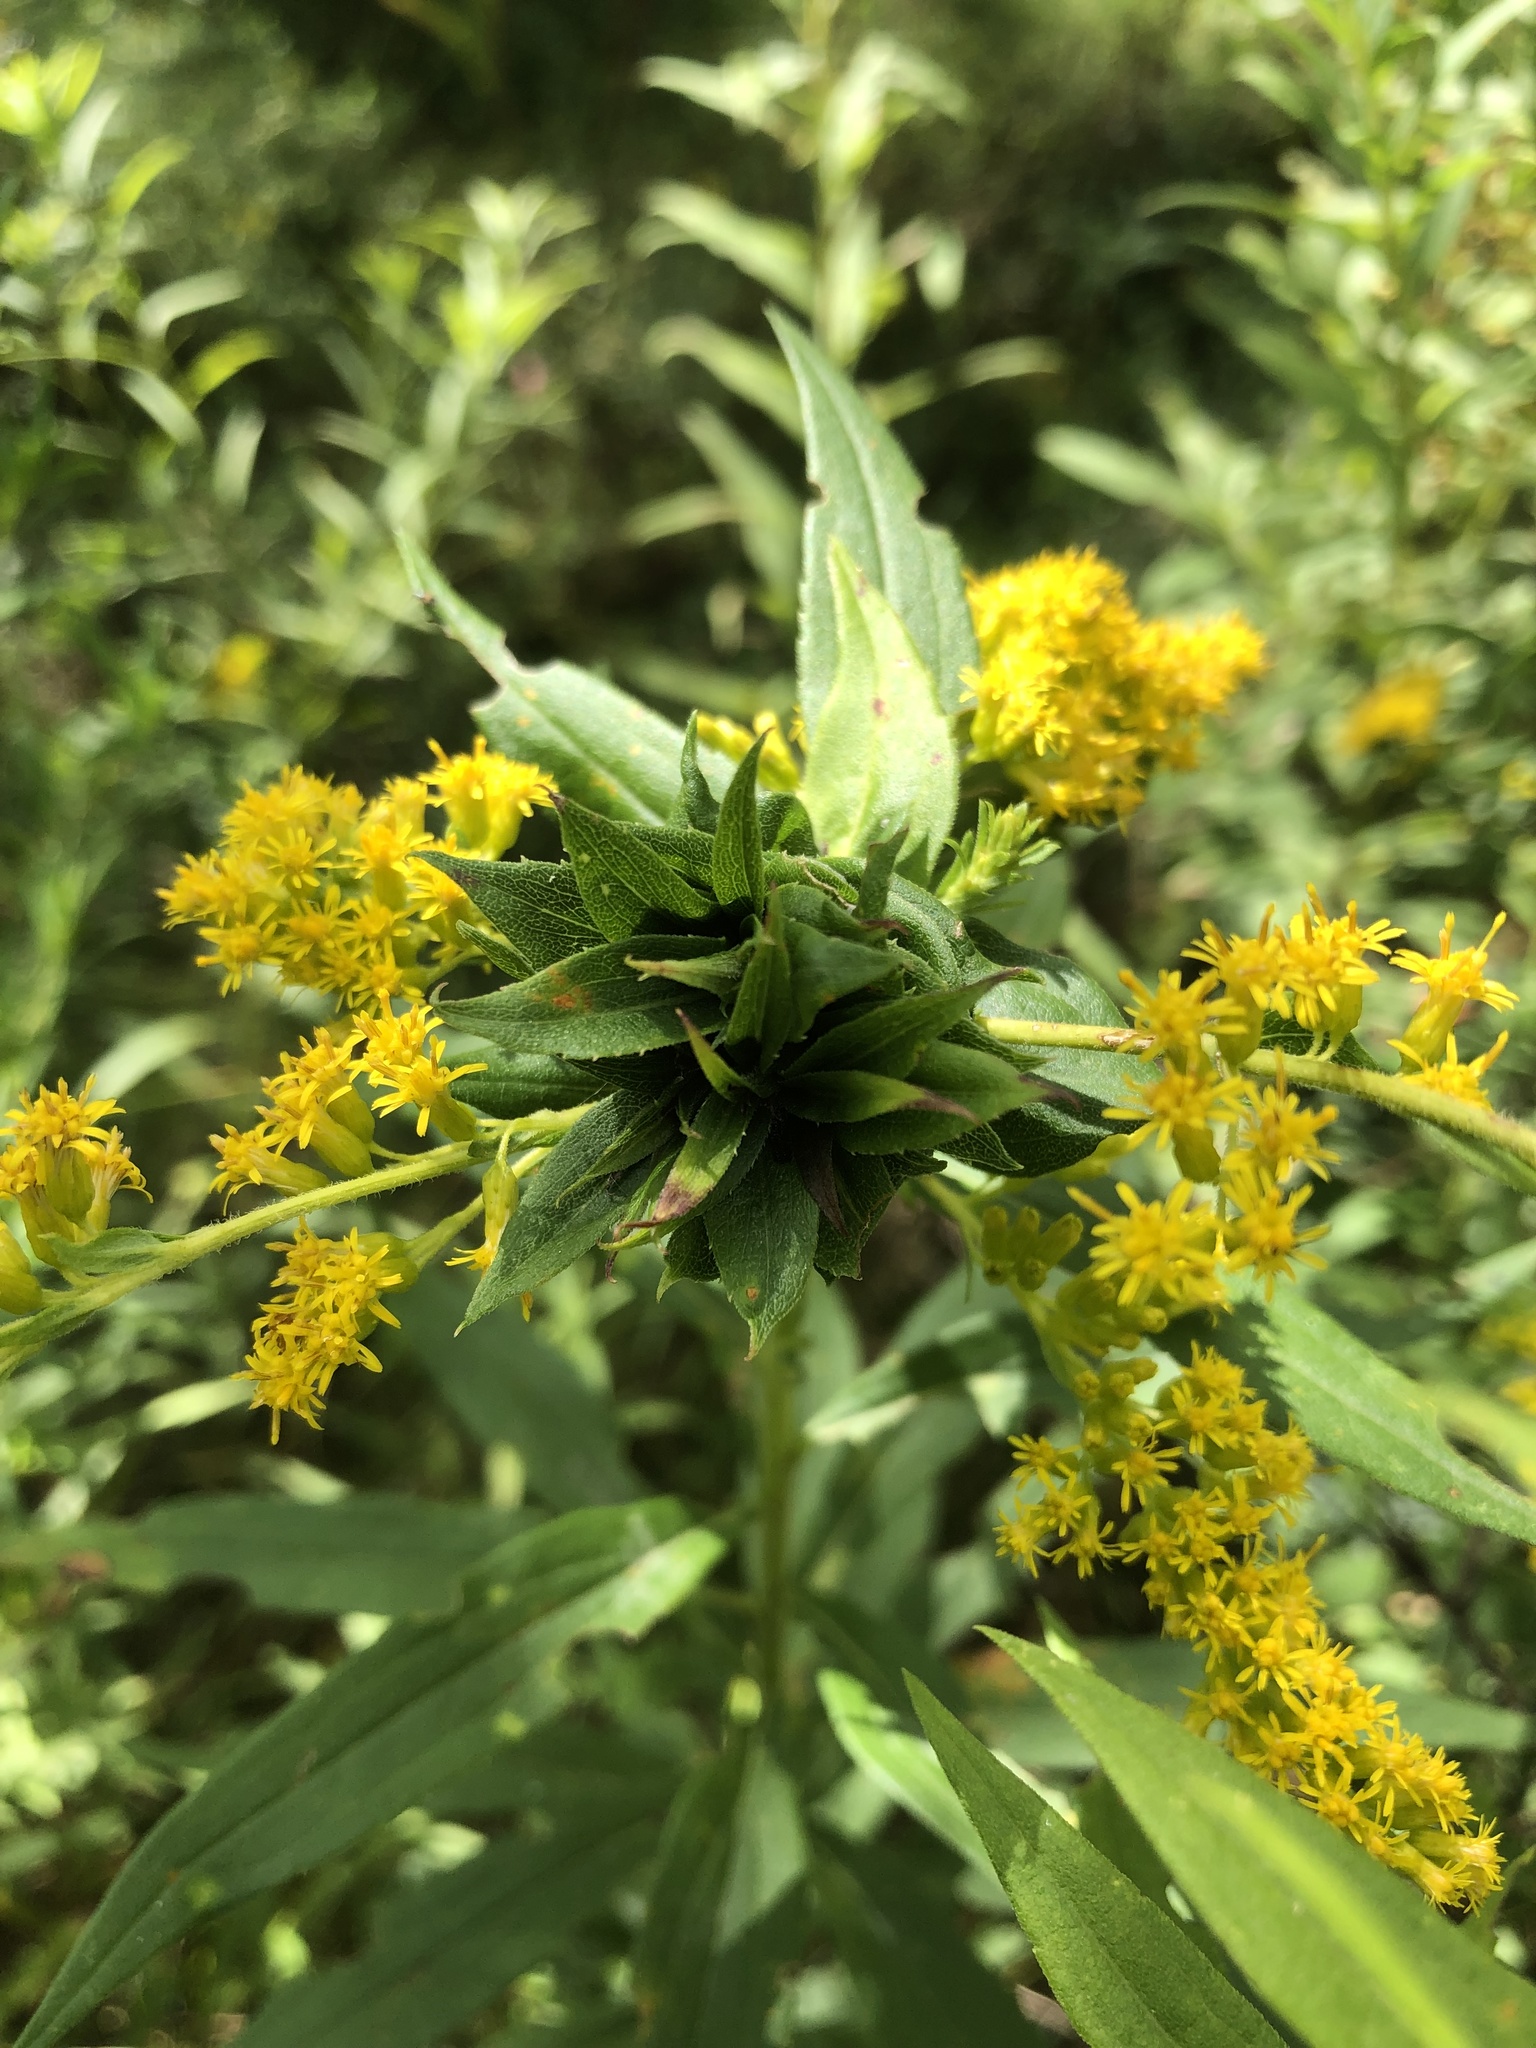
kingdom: Animalia
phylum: Arthropoda
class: Insecta
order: Diptera
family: Cecidomyiidae
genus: Rhopalomyia
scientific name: Rhopalomyia solidaginis
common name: Goldenrod bunch gall midge
